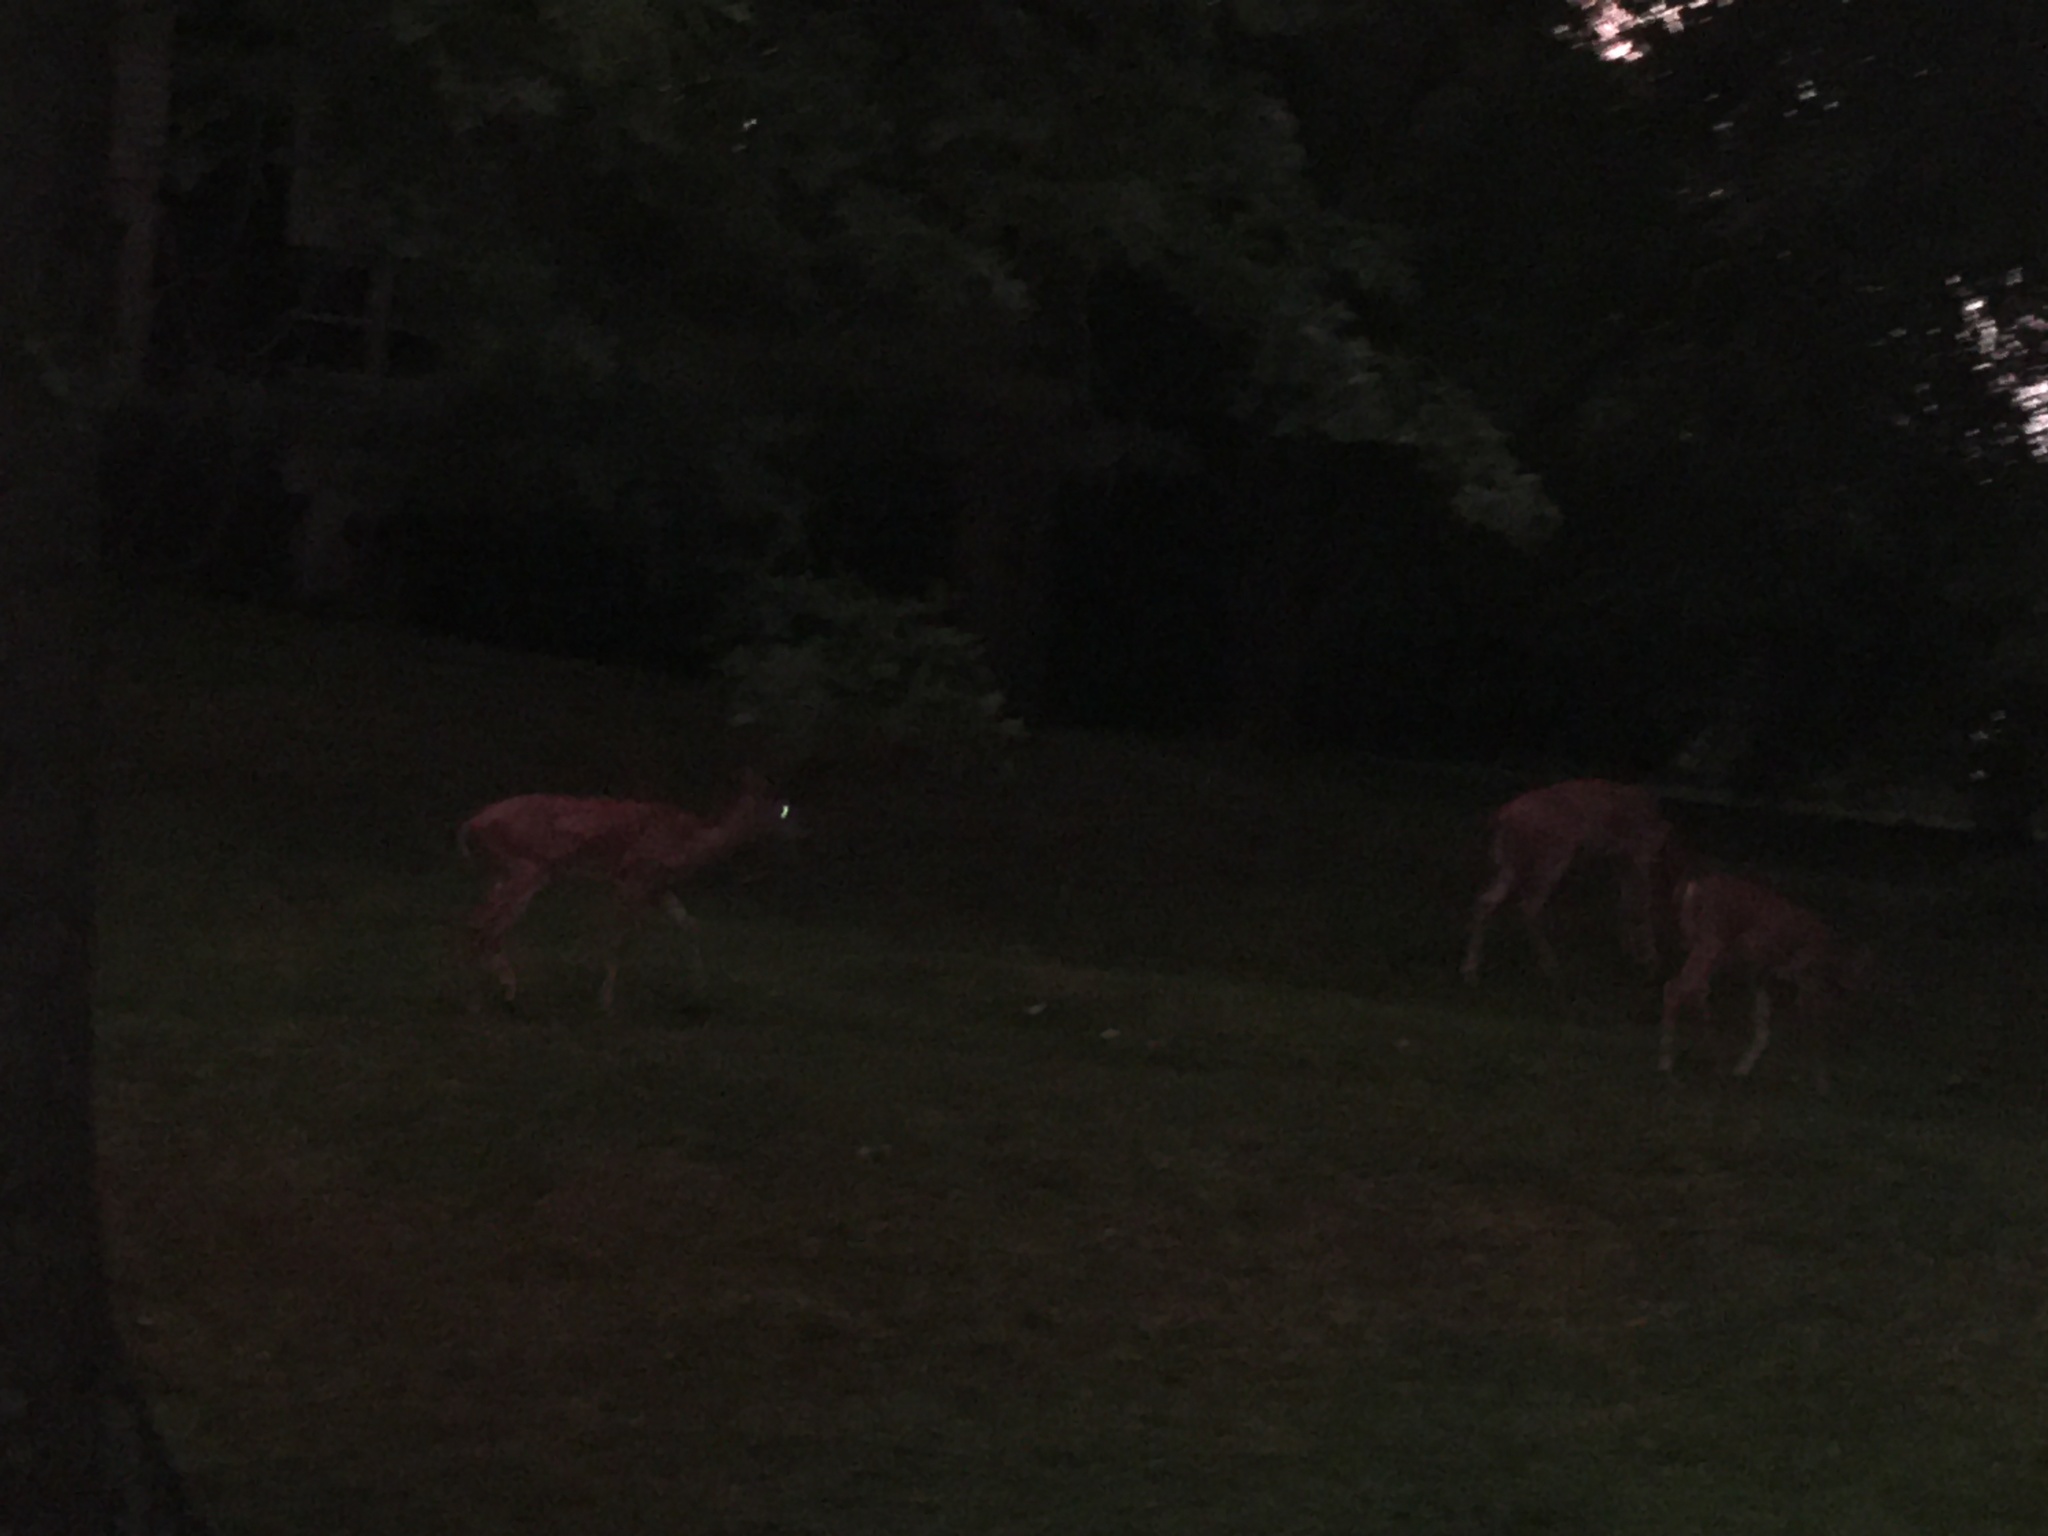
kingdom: Animalia
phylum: Chordata
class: Mammalia
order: Artiodactyla
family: Cervidae
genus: Odocoileus
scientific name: Odocoileus virginianus
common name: White-tailed deer
